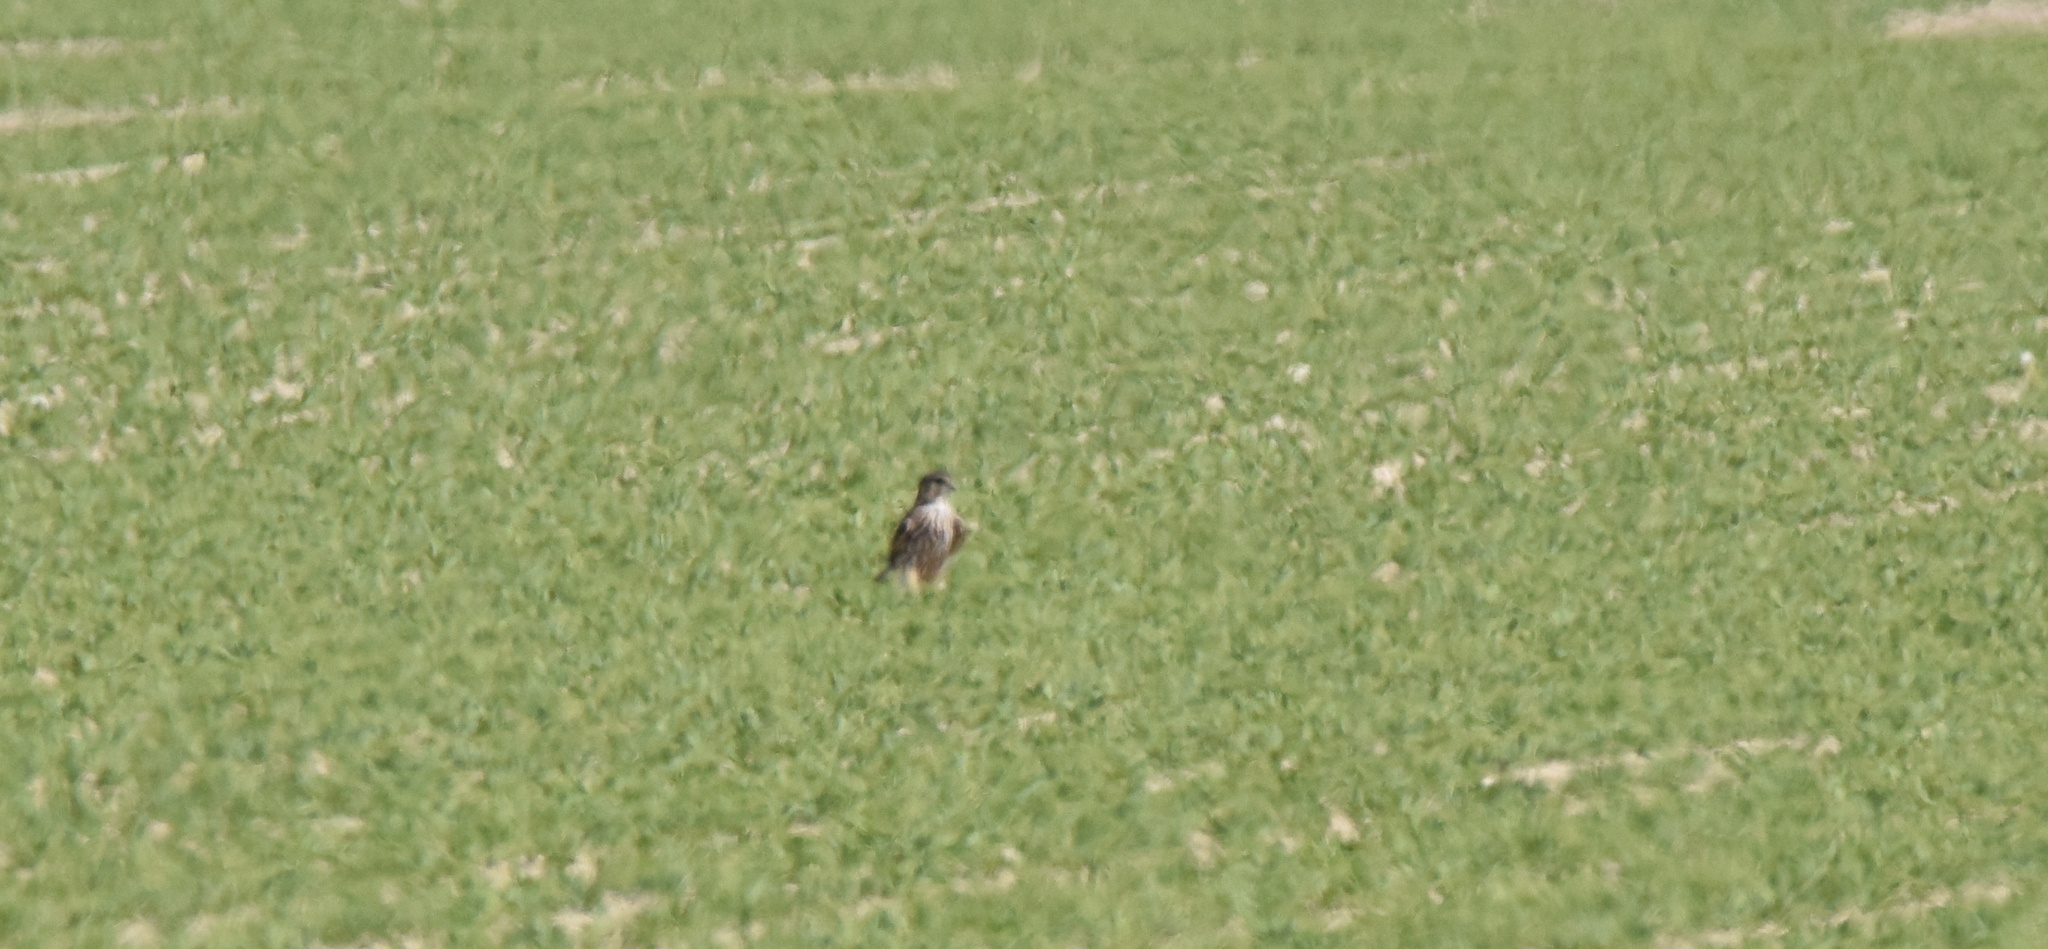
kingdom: Animalia
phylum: Chordata
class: Aves
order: Falconiformes
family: Falconidae
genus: Falco
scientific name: Falco columbarius
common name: Merlin
